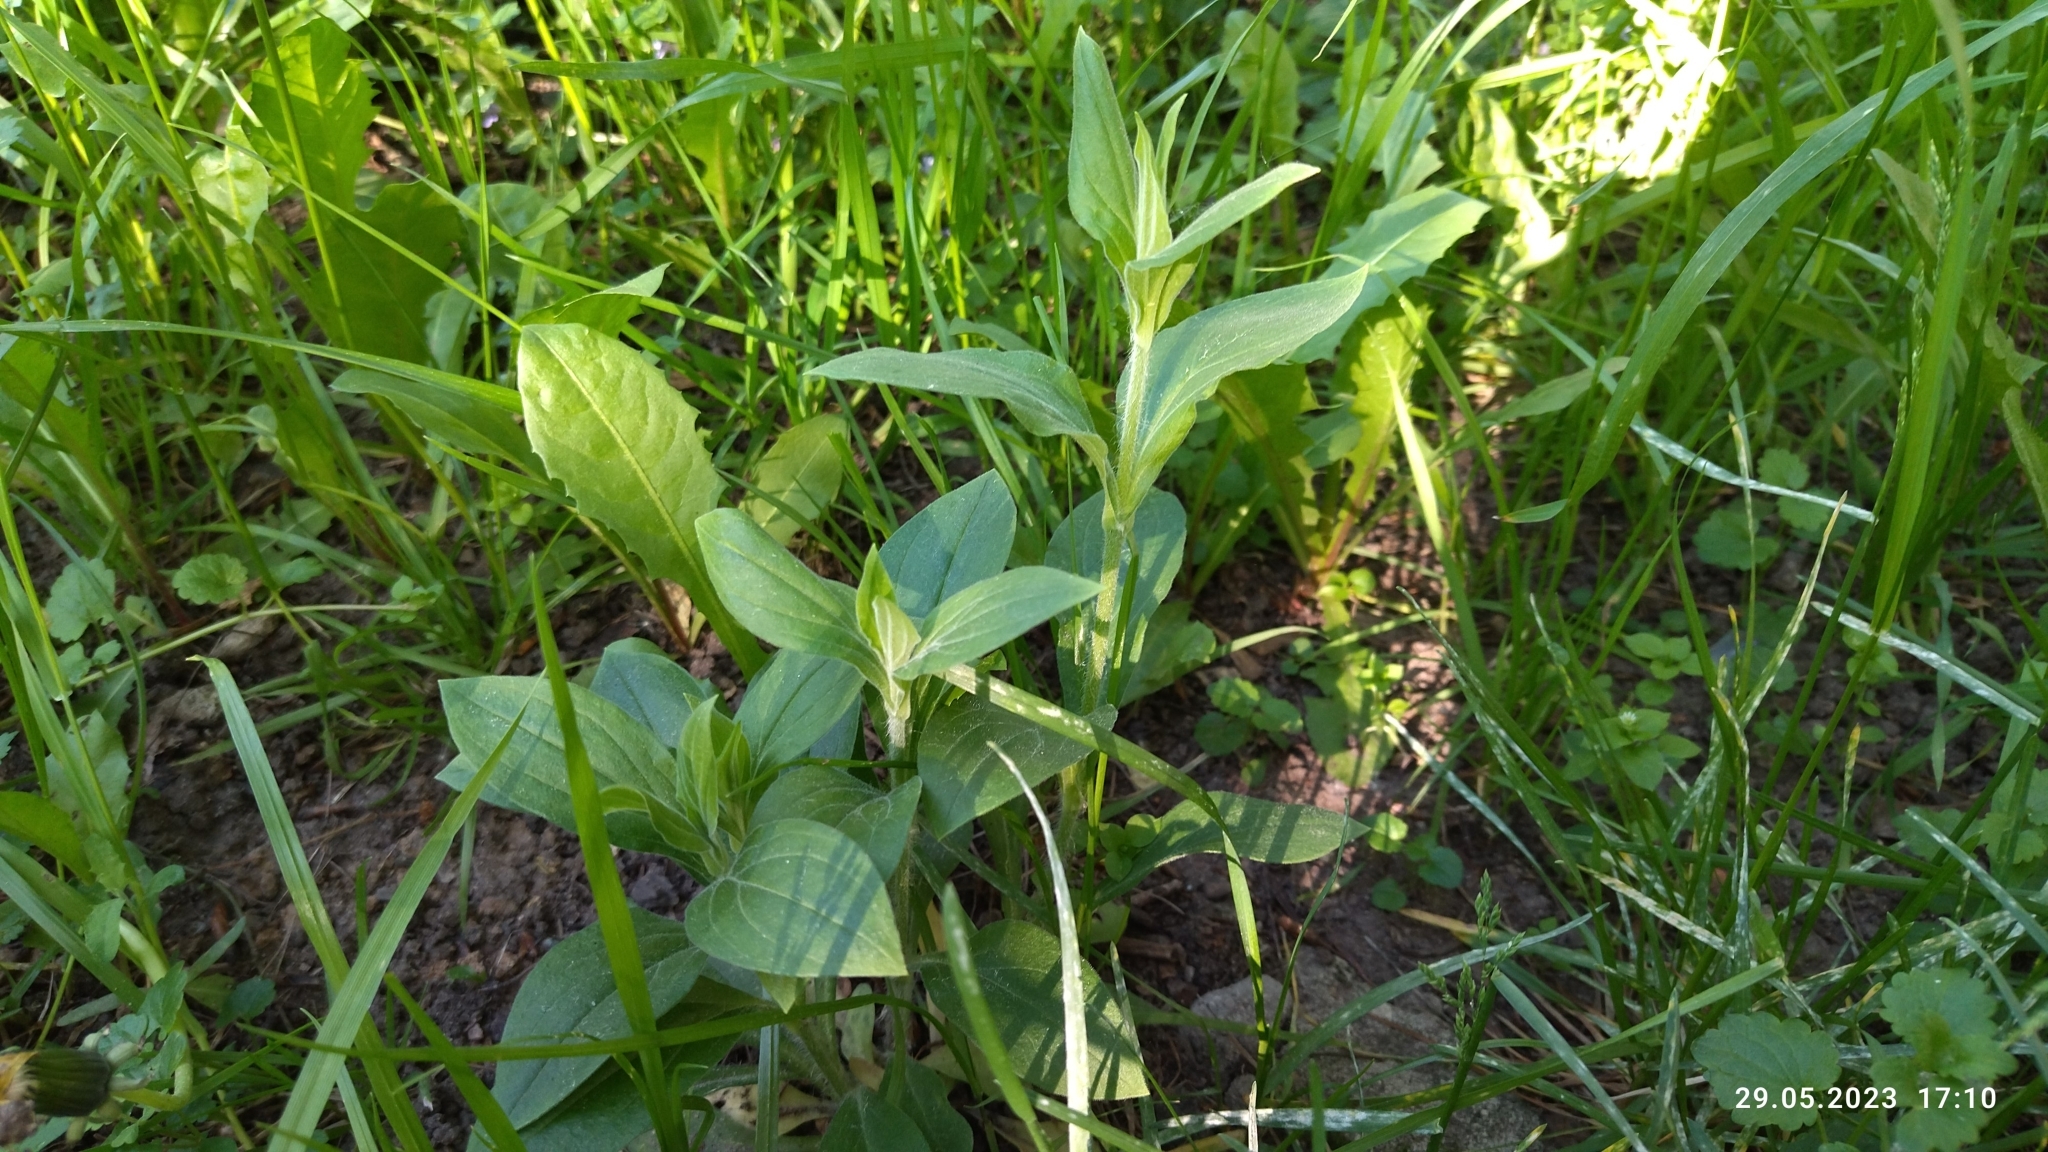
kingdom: Plantae
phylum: Tracheophyta
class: Magnoliopsida
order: Caryophyllales
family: Caryophyllaceae
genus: Silene
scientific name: Silene latifolia
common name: White campion
